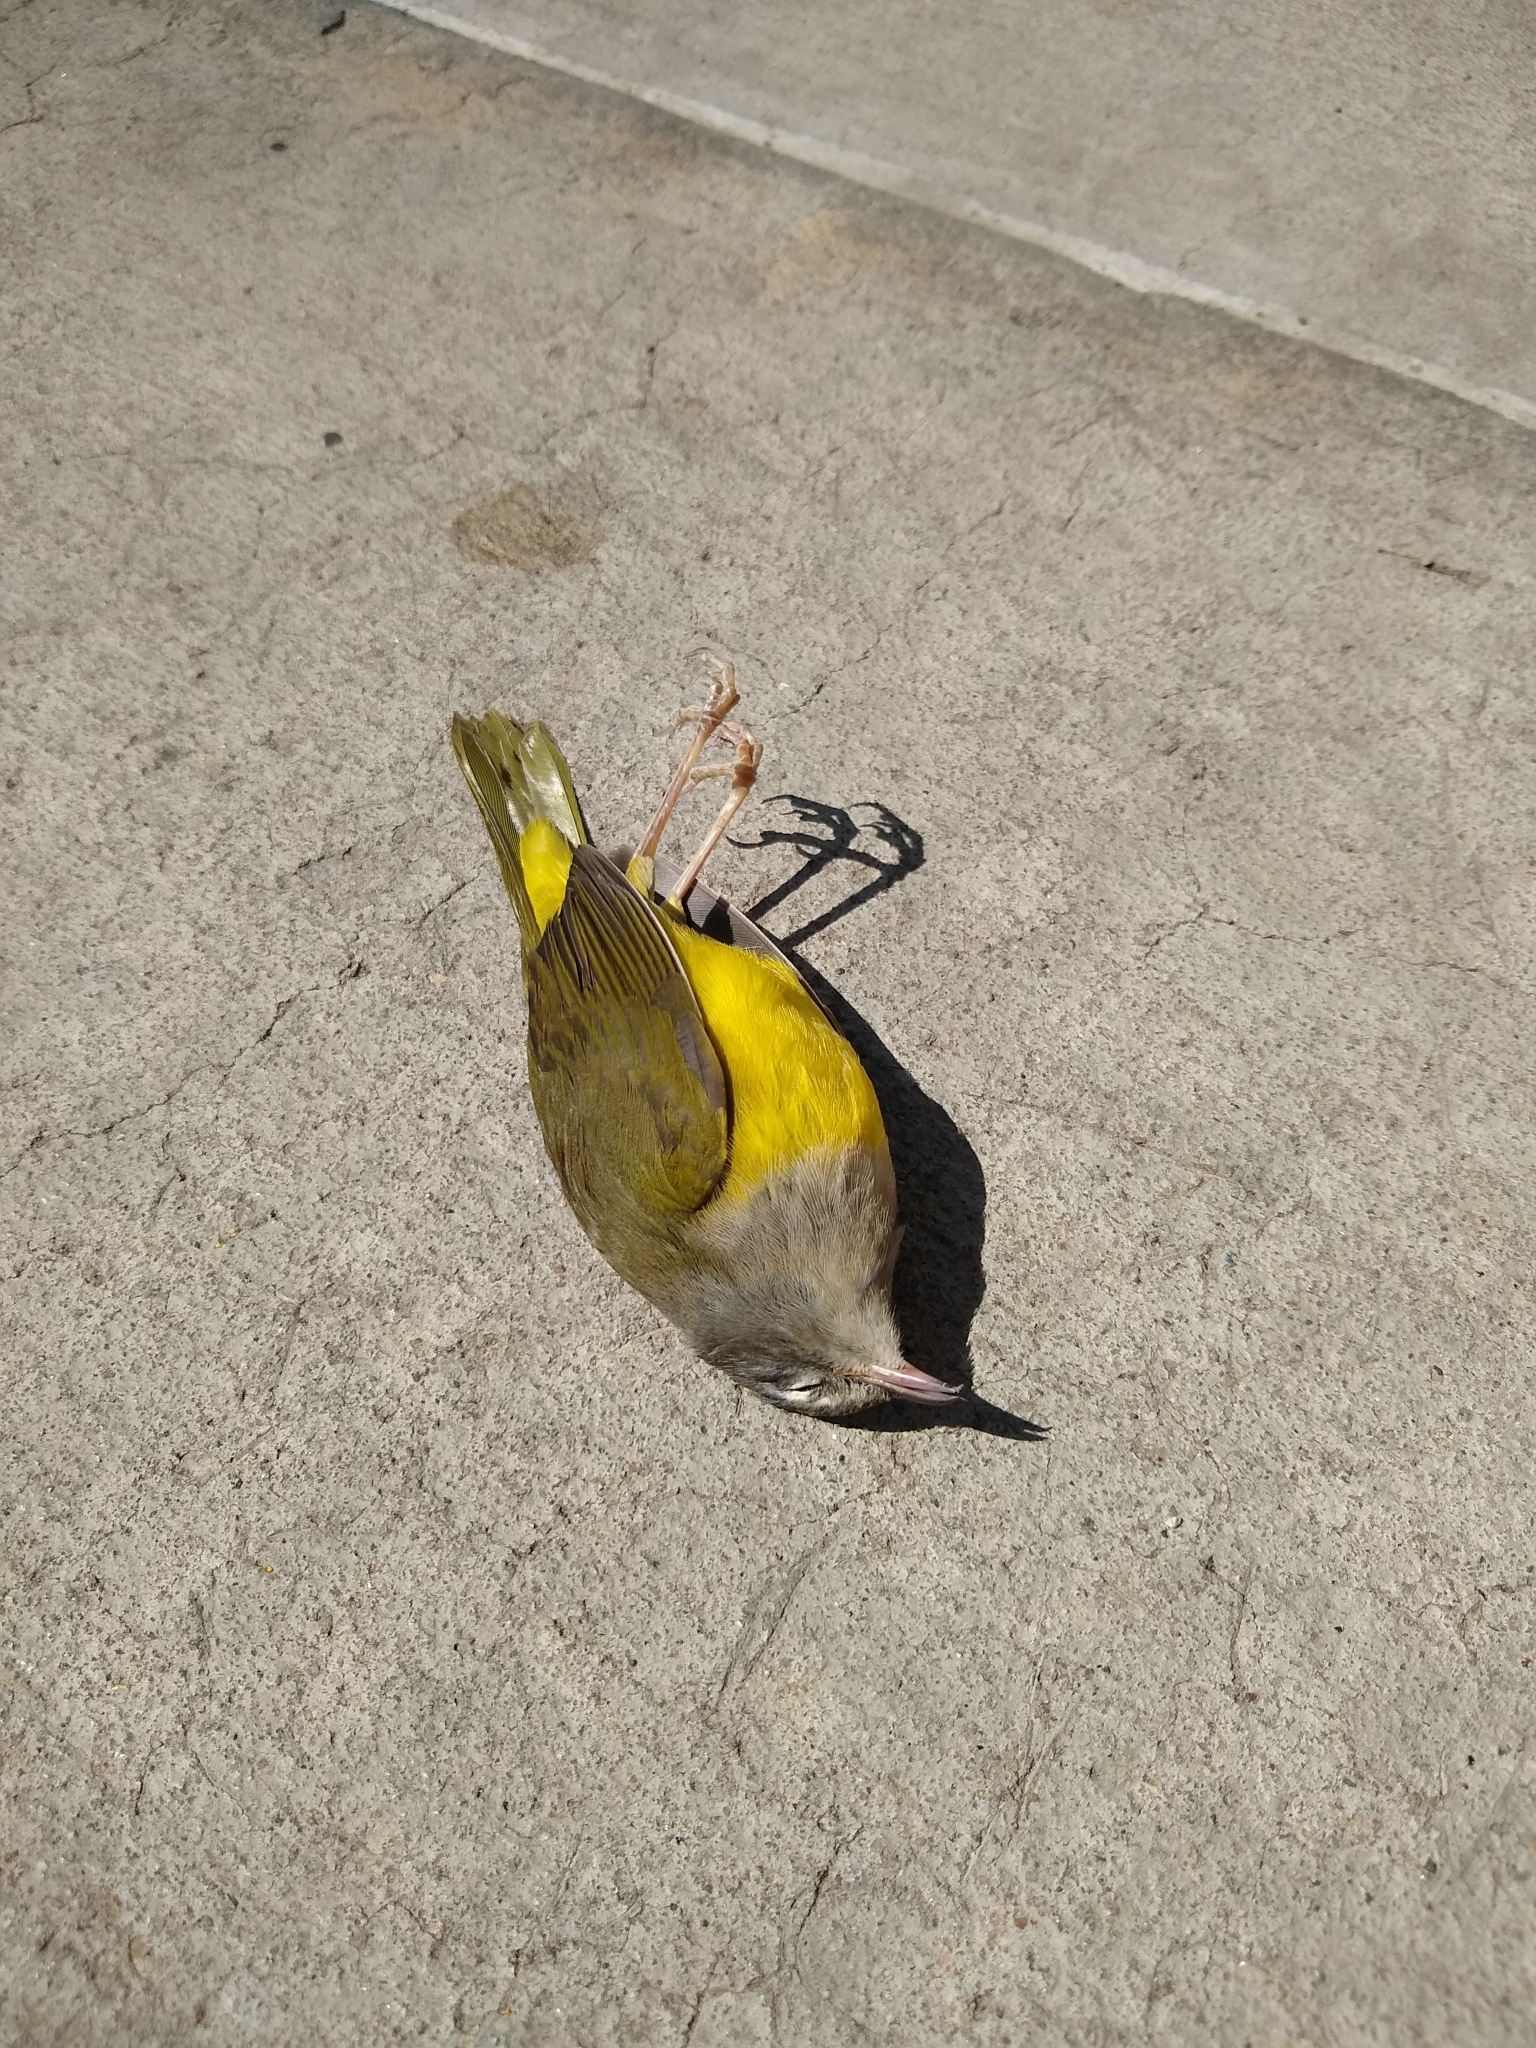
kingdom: Animalia
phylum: Chordata
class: Aves
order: Passeriformes
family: Parulidae
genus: Geothlypis
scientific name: Geothlypis tolmiei
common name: Macgillivray's warbler
